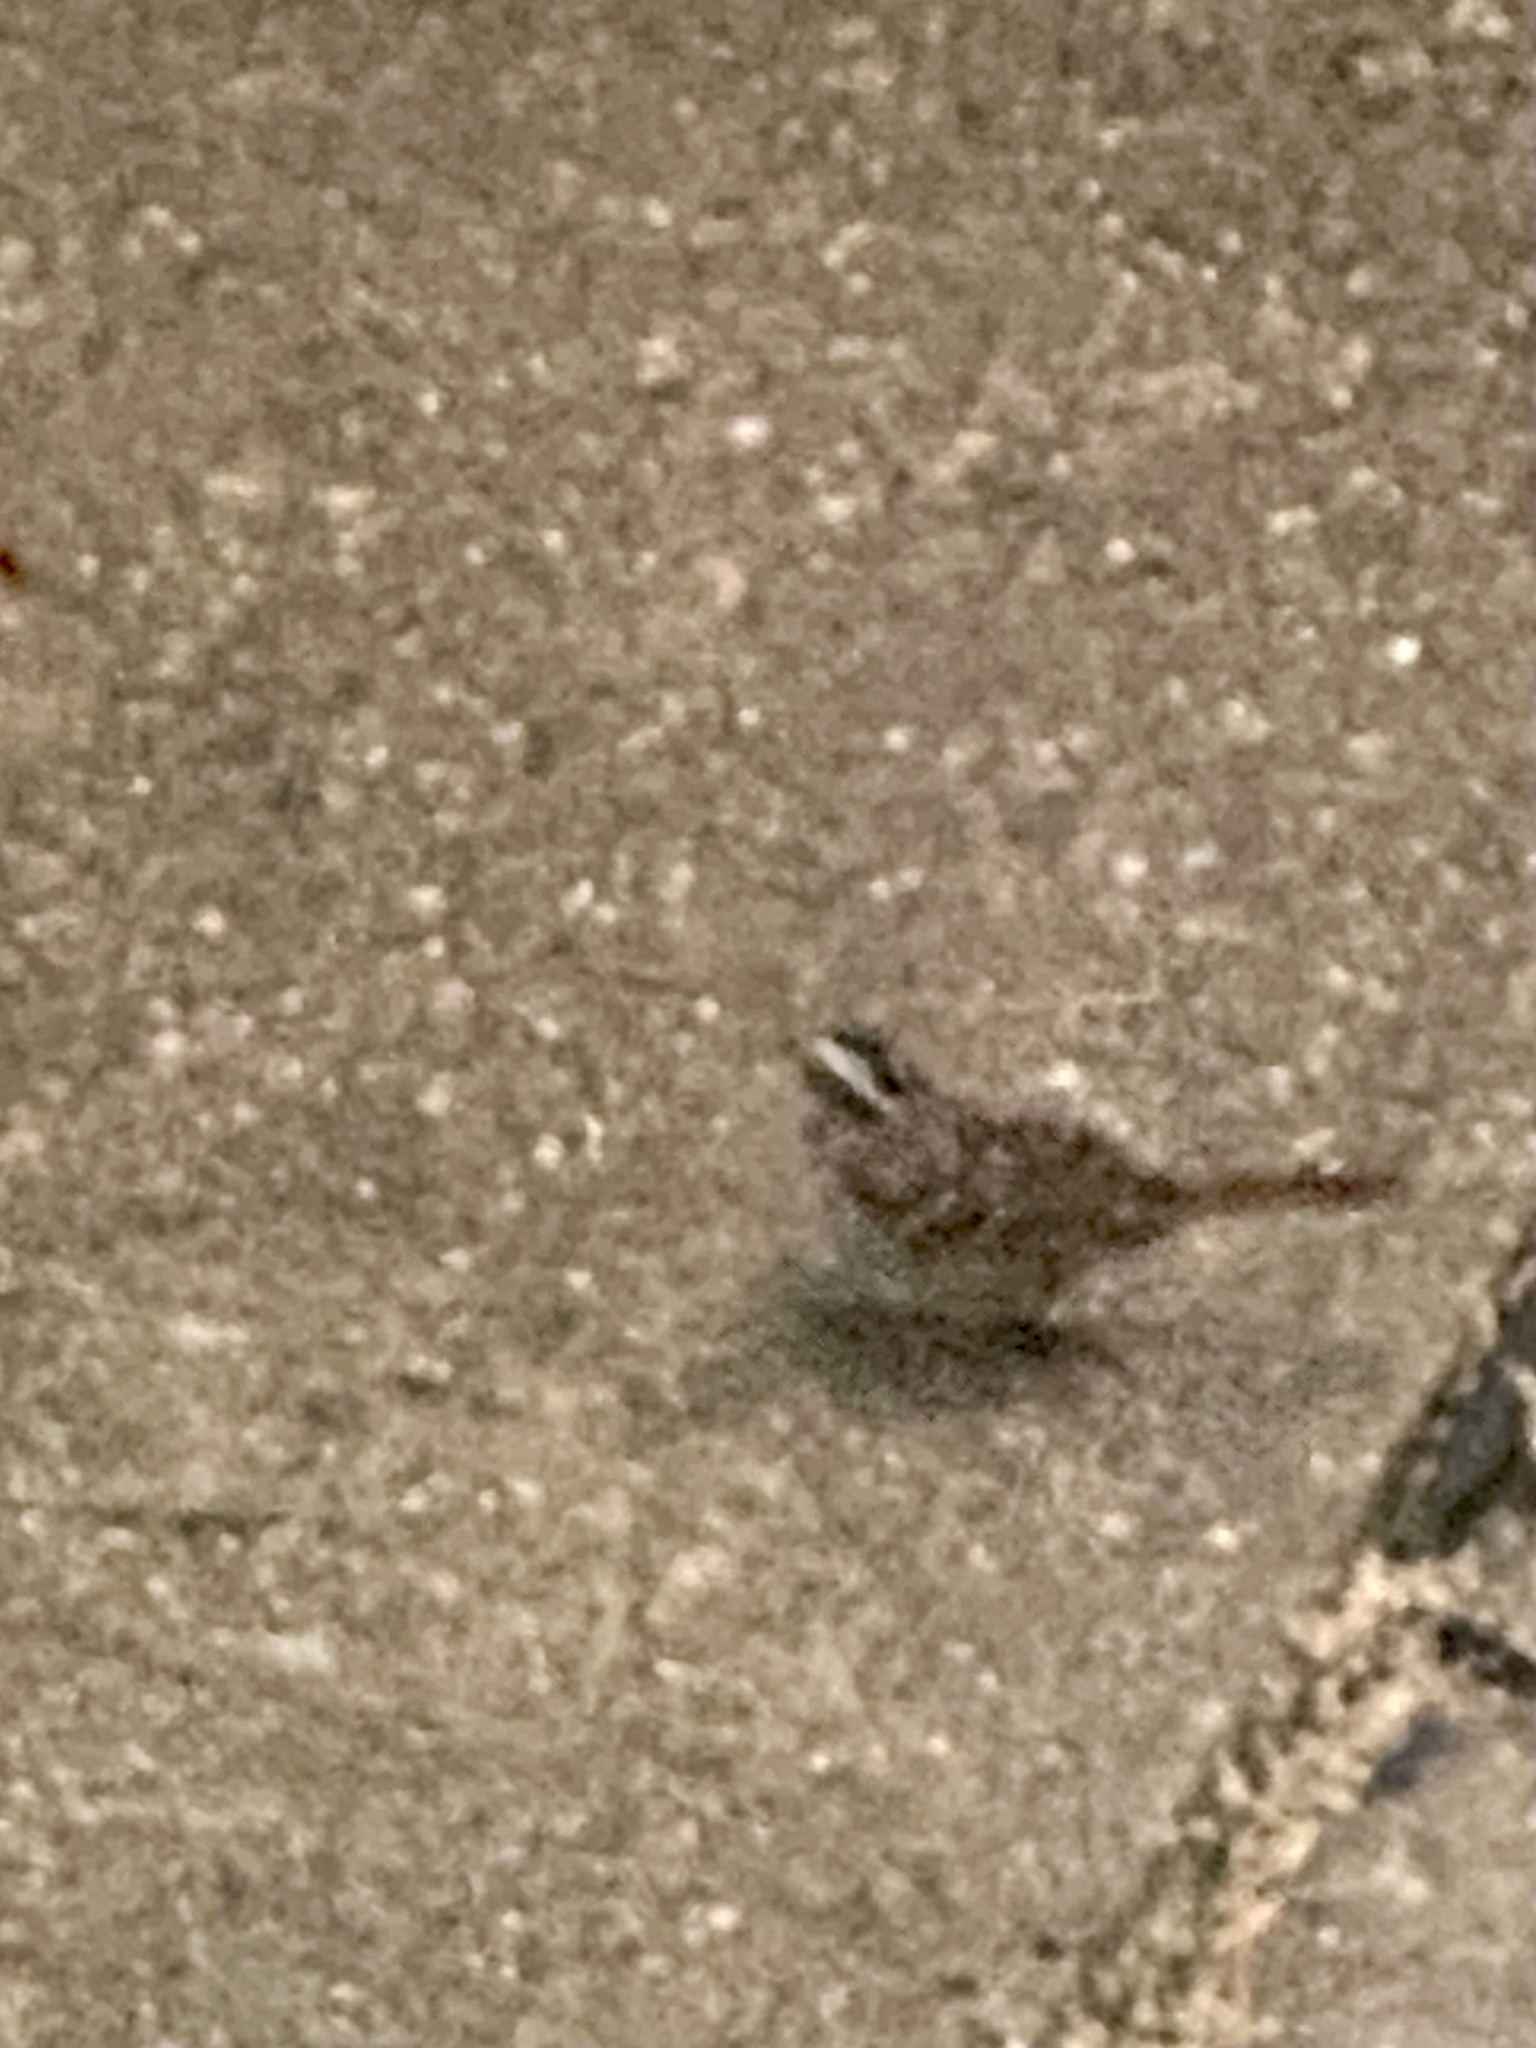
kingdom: Animalia
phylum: Chordata
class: Aves
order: Passeriformes
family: Passerellidae
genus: Zonotrichia
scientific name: Zonotrichia albicollis
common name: White-throated sparrow
